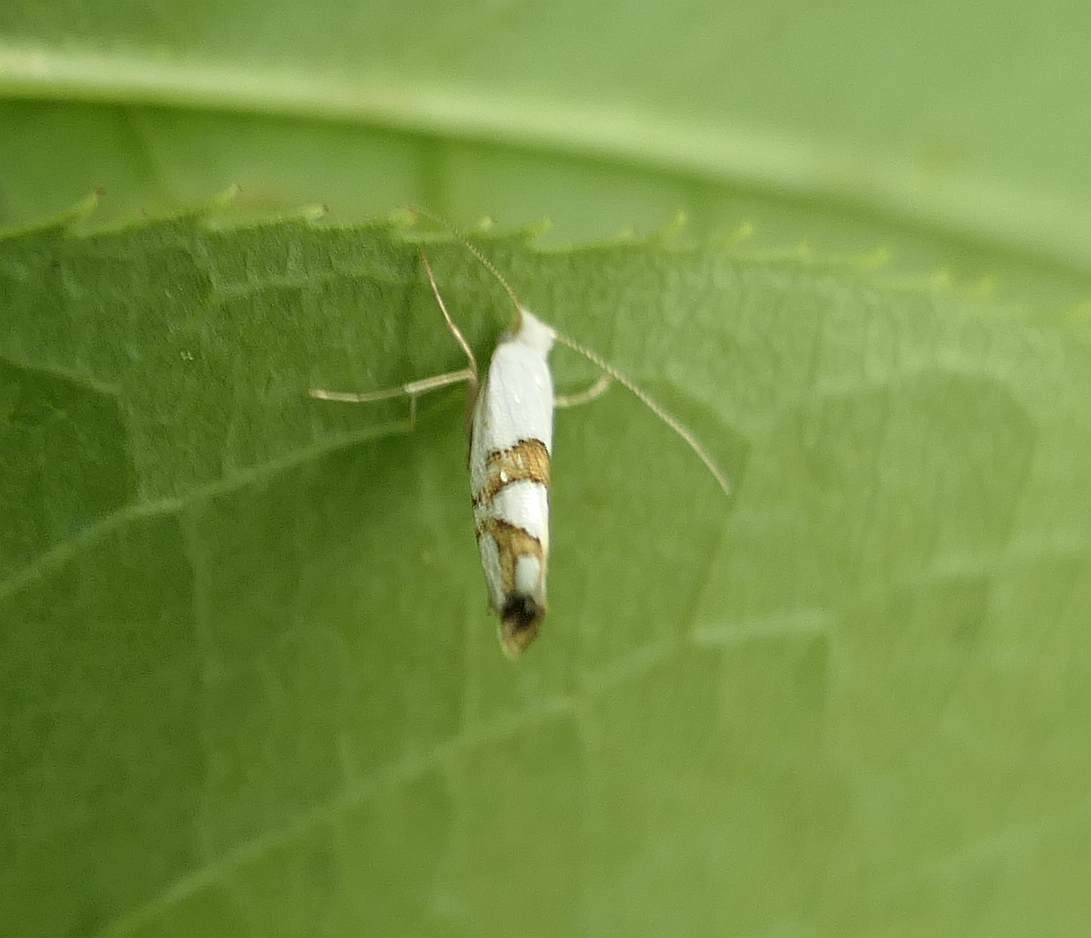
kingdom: Animalia
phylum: Arthropoda
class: Insecta
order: Lepidoptera
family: Argyresthiidae
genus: Argyresthia
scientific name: Argyresthia oreasella
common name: Cherry shoot borer moth
